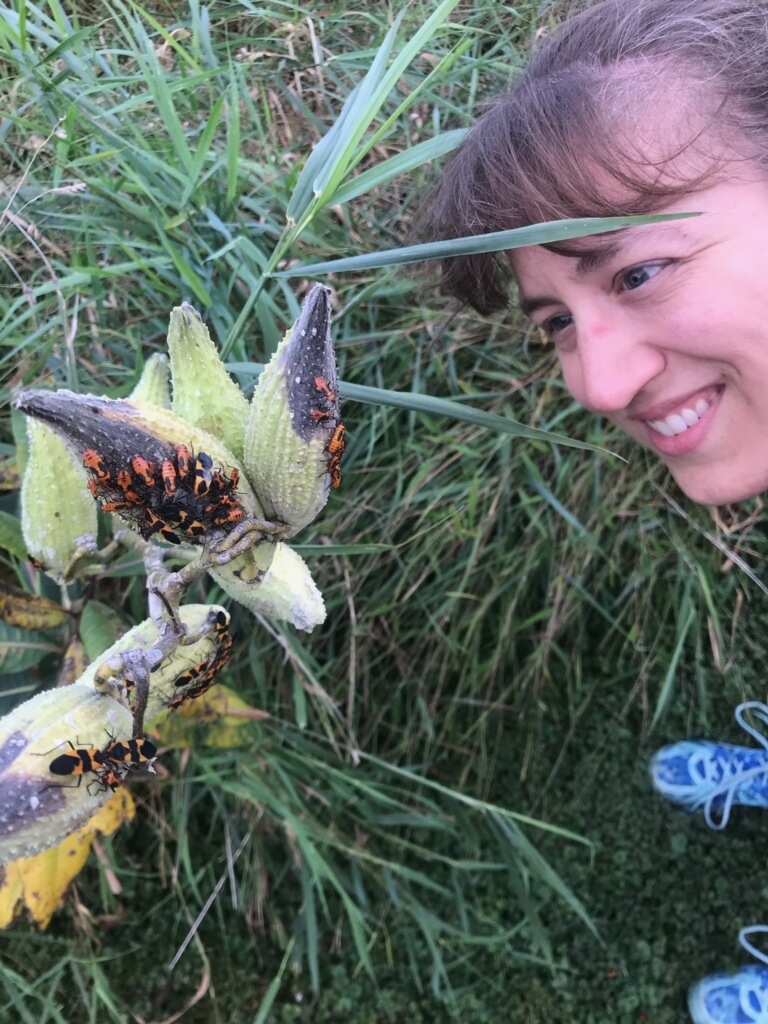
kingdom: Animalia
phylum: Arthropoda
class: Insecta
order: Hemiptera
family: Lygaeidae
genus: Oncopeltus
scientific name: Oncopeltus fasciatus
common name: Large milkweed bug
